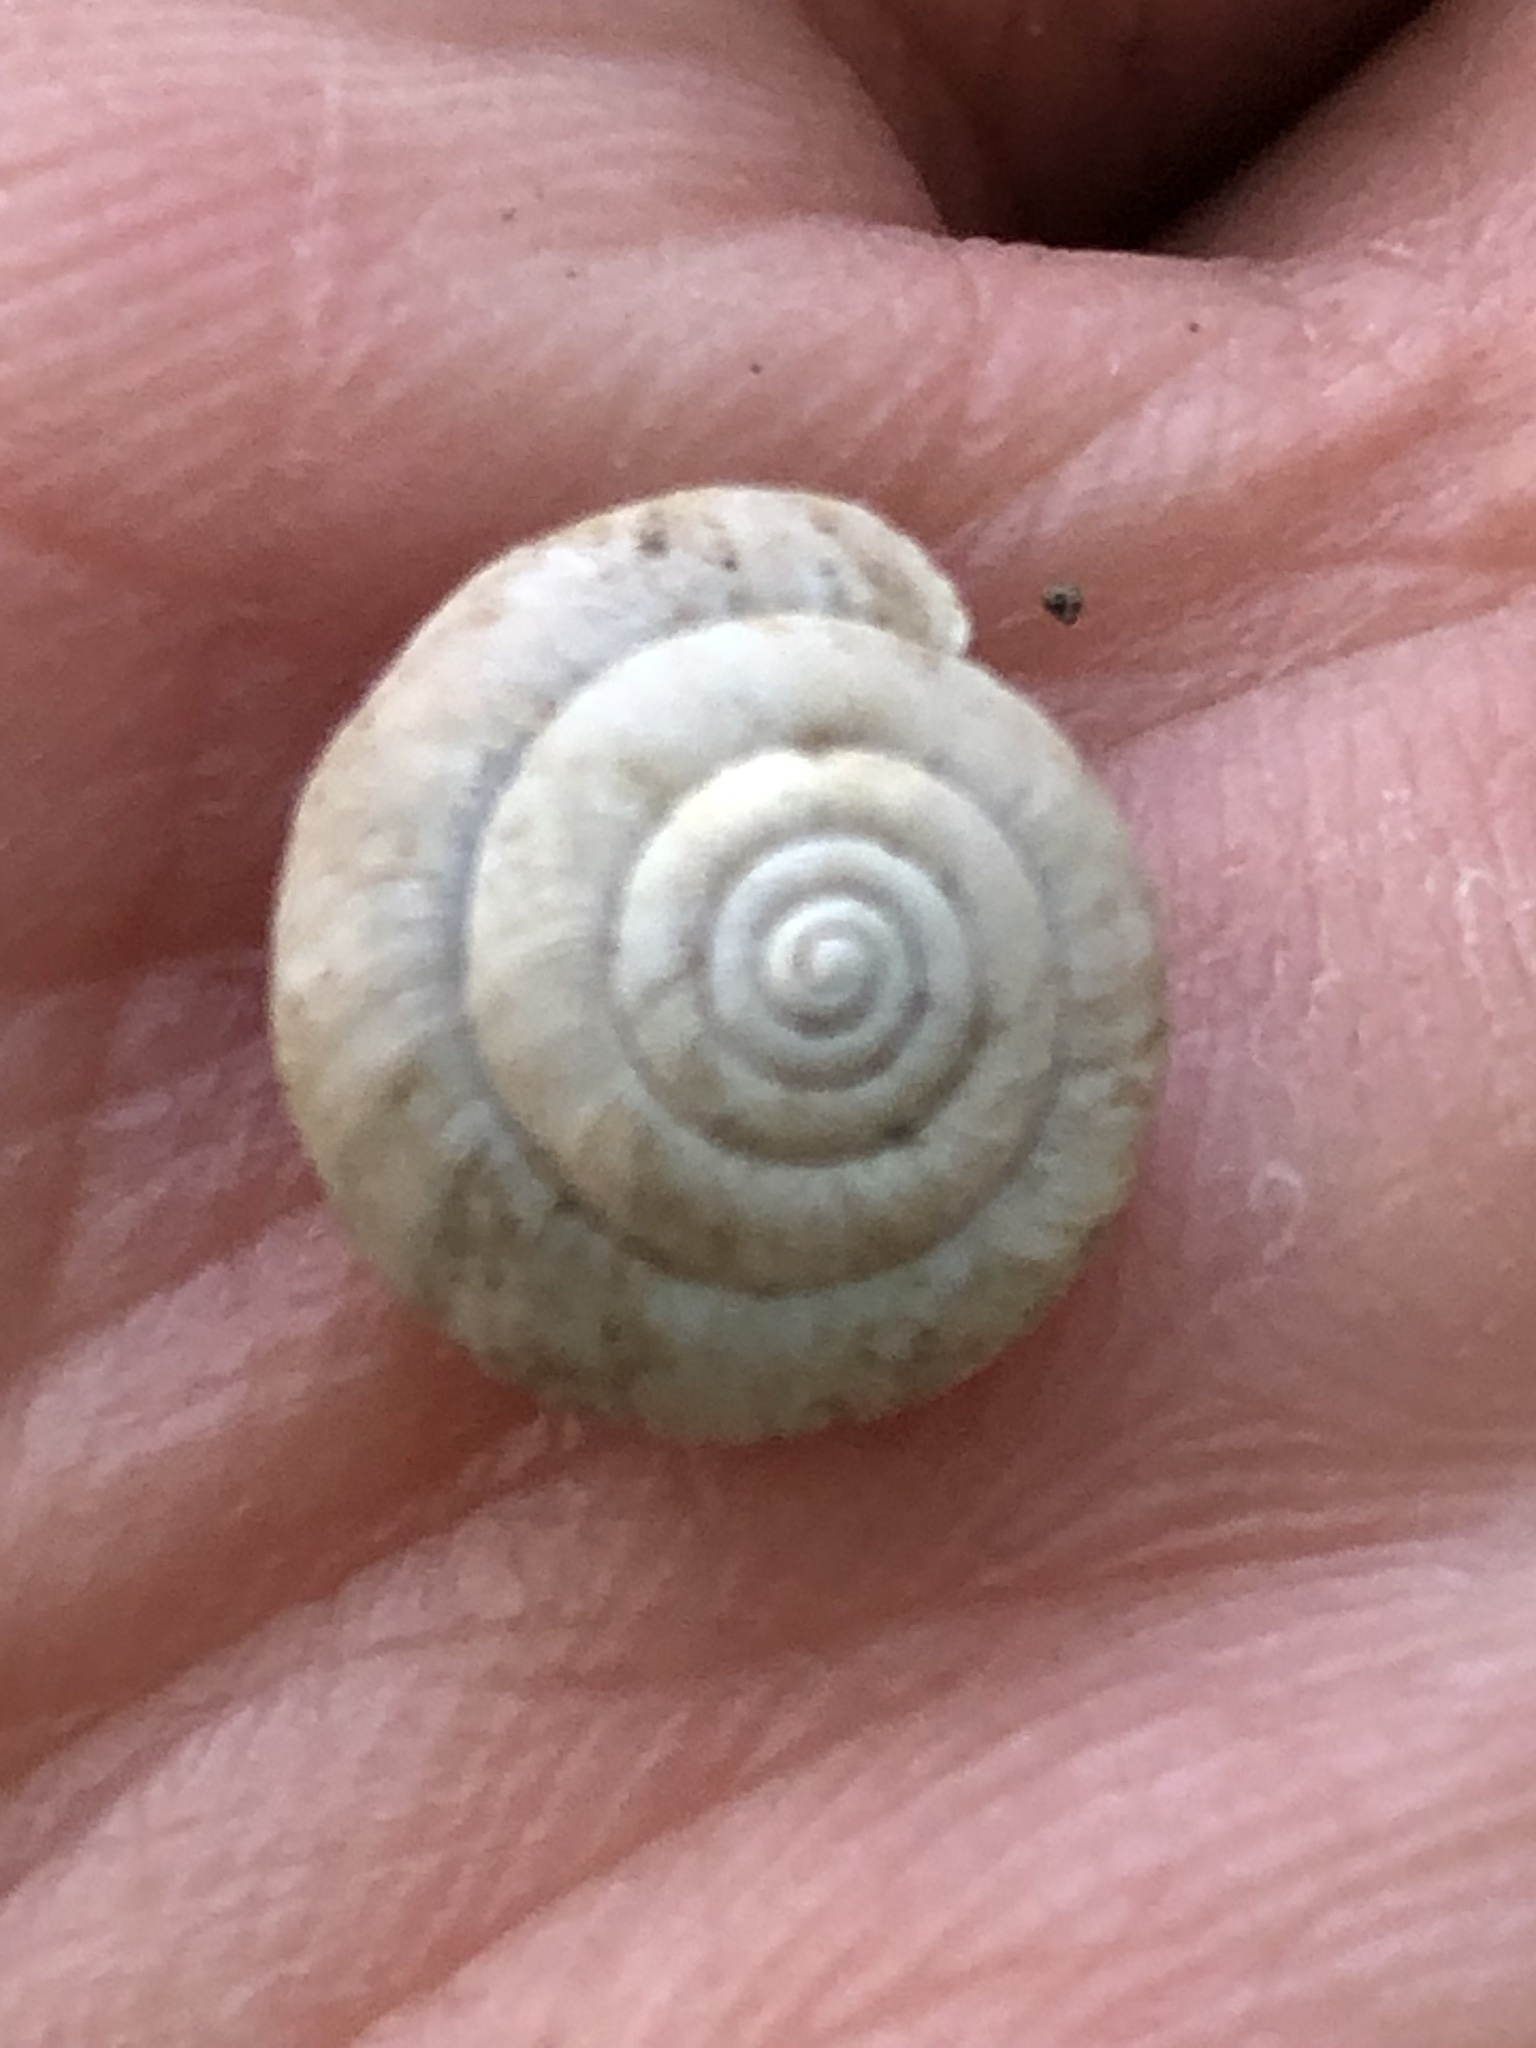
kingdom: Animalia
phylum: Mollusca
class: Gastropoda
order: Stylommatophora
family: Hygromiidae
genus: Trochulus
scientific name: Trochulus hispidus
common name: Hairy snail
